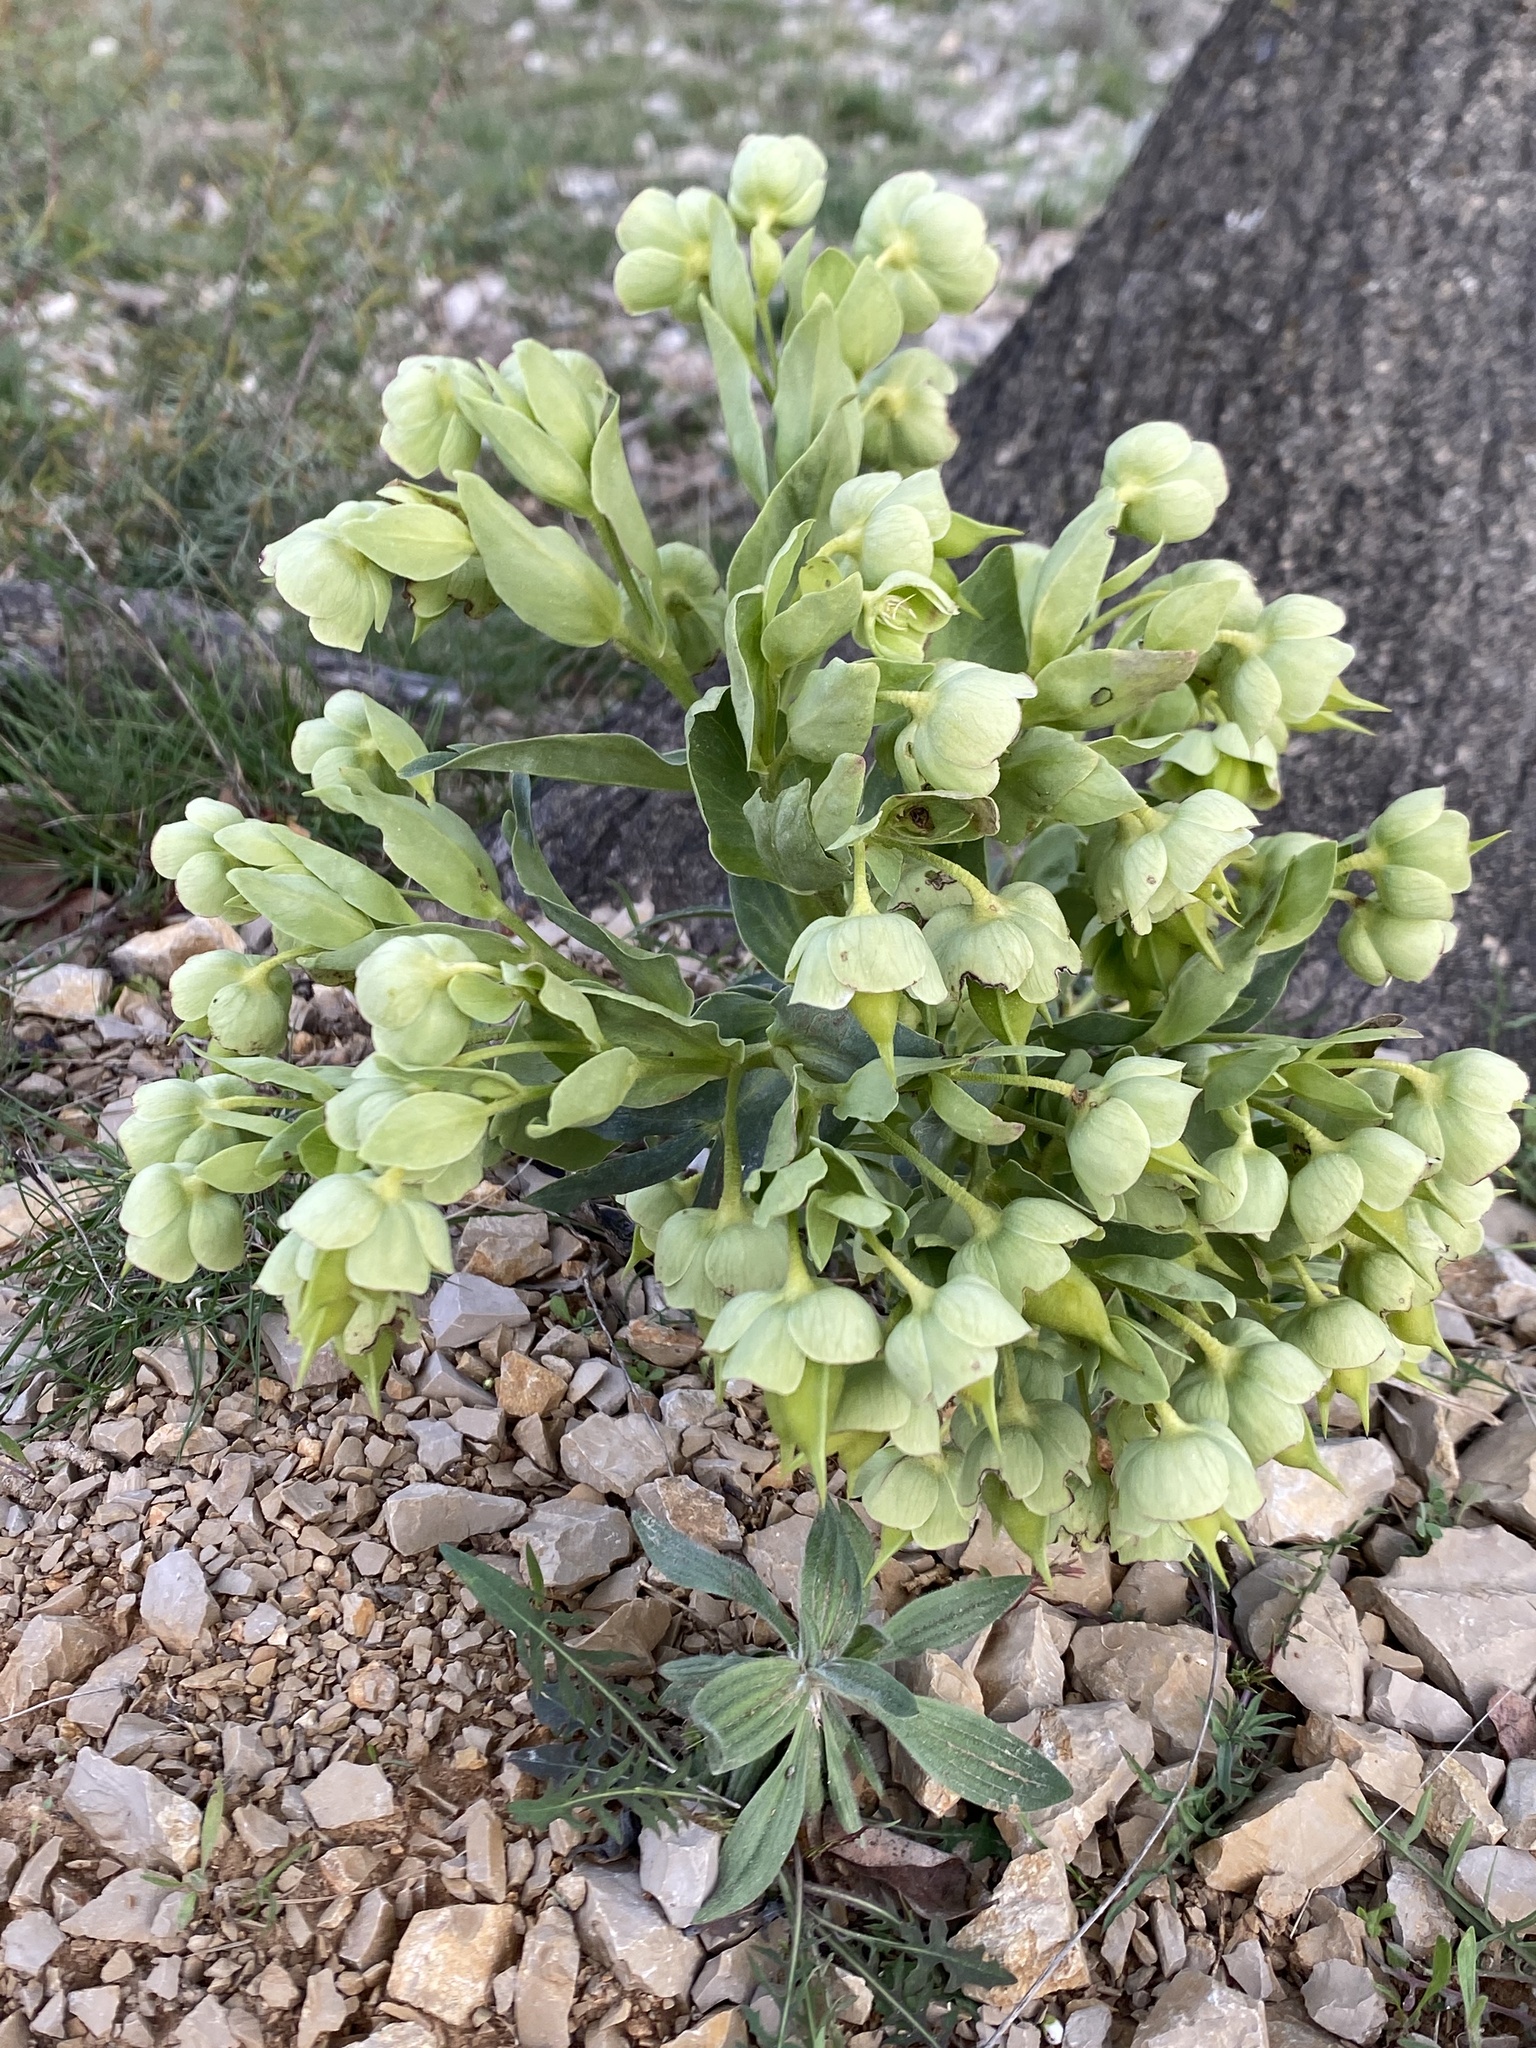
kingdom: Plantae
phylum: Tracheophyta
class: Magnoliopsida
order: Ranunculales
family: Ranunculaceae
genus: Helleborus
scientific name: Helleborus foetidus
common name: Stinking hellebore
